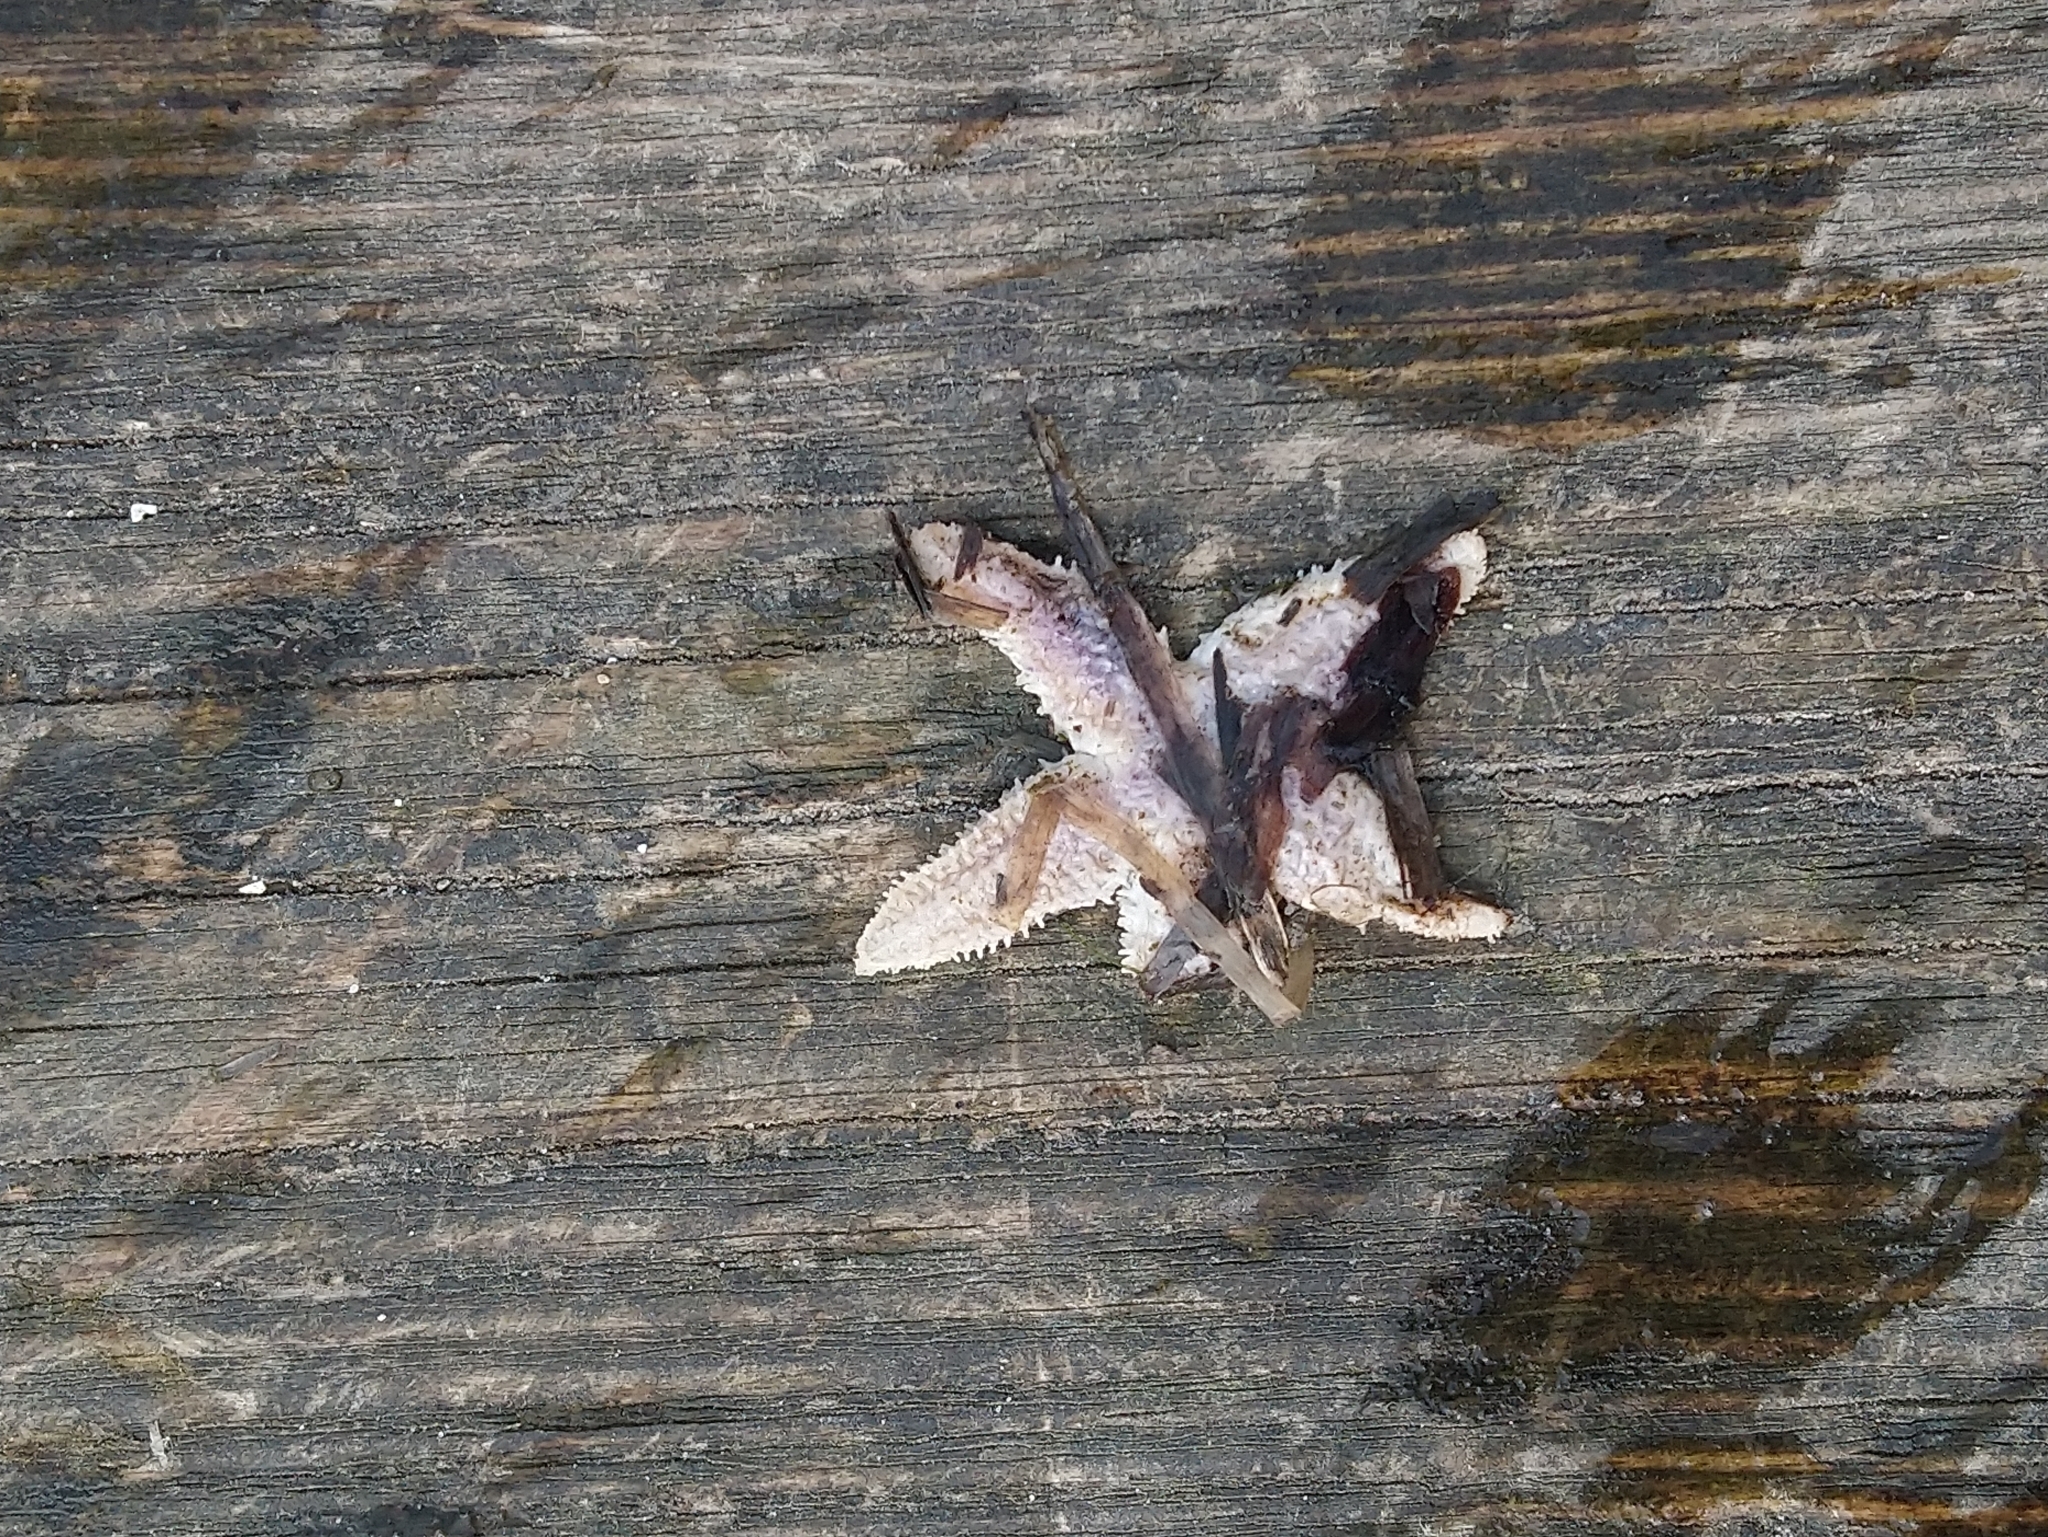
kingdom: Animalia
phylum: Echinodermata
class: Asteroidea
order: Forcipulatida
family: Asteriidae
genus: Asterias
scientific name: Asterias rubens
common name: Common starfish
